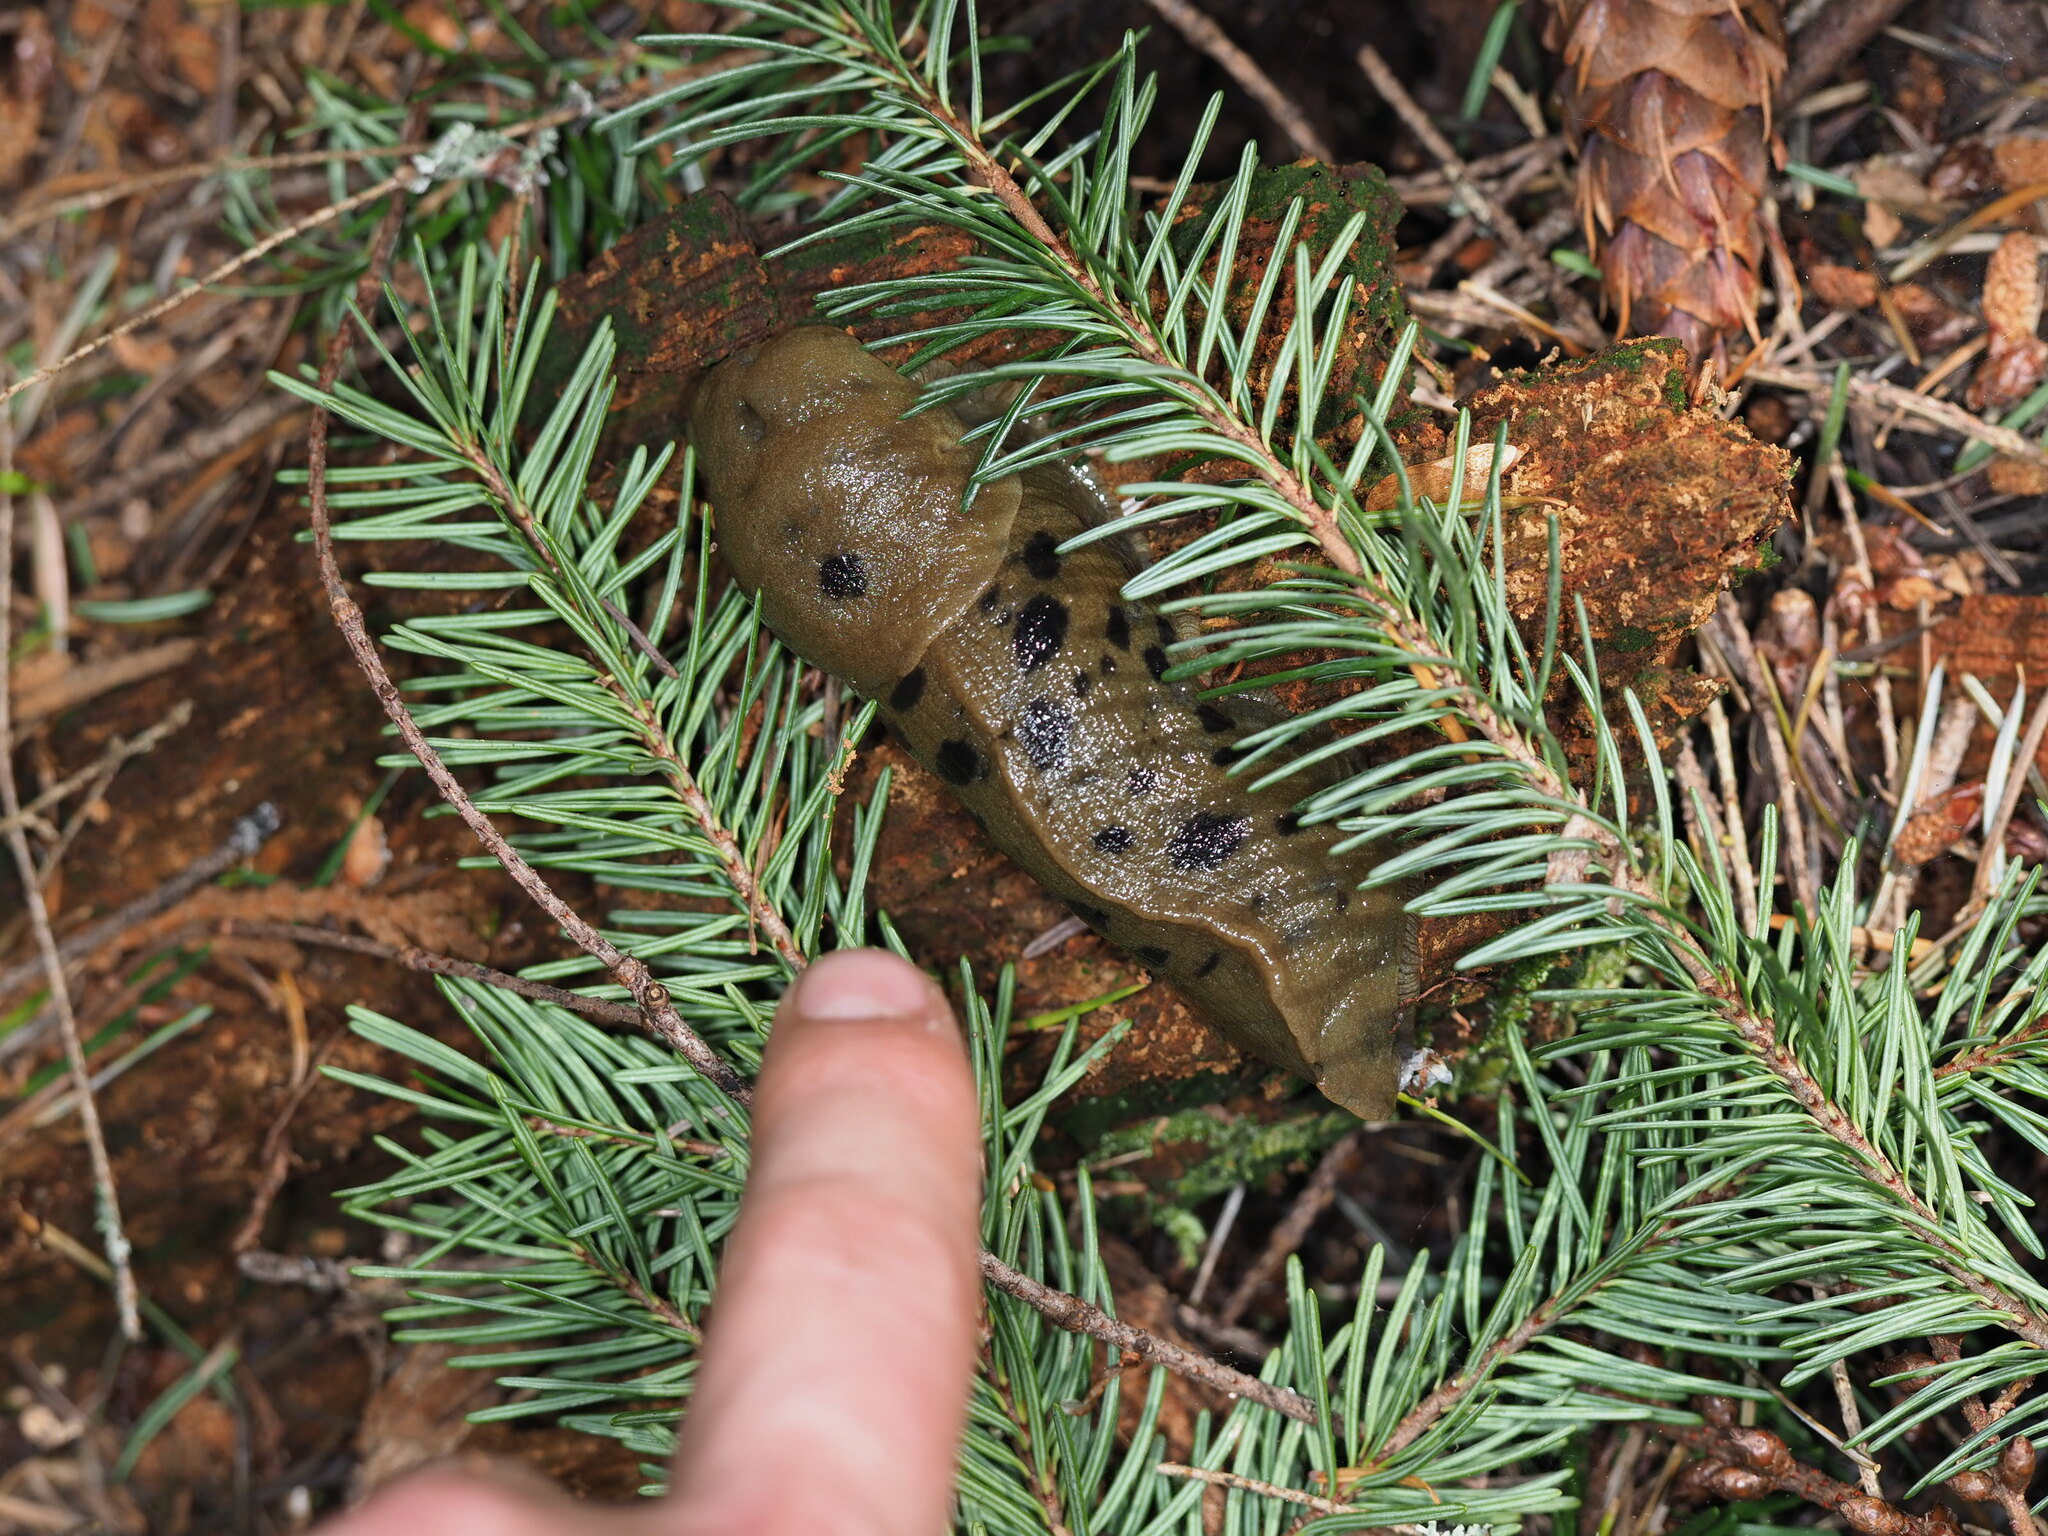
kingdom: Animalia
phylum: Mollusca
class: Gastropoda
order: Stylommatophora
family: Ariolimacidae
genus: Ariolimax
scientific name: Ariolimax columbianus
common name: Pacific banana slug
